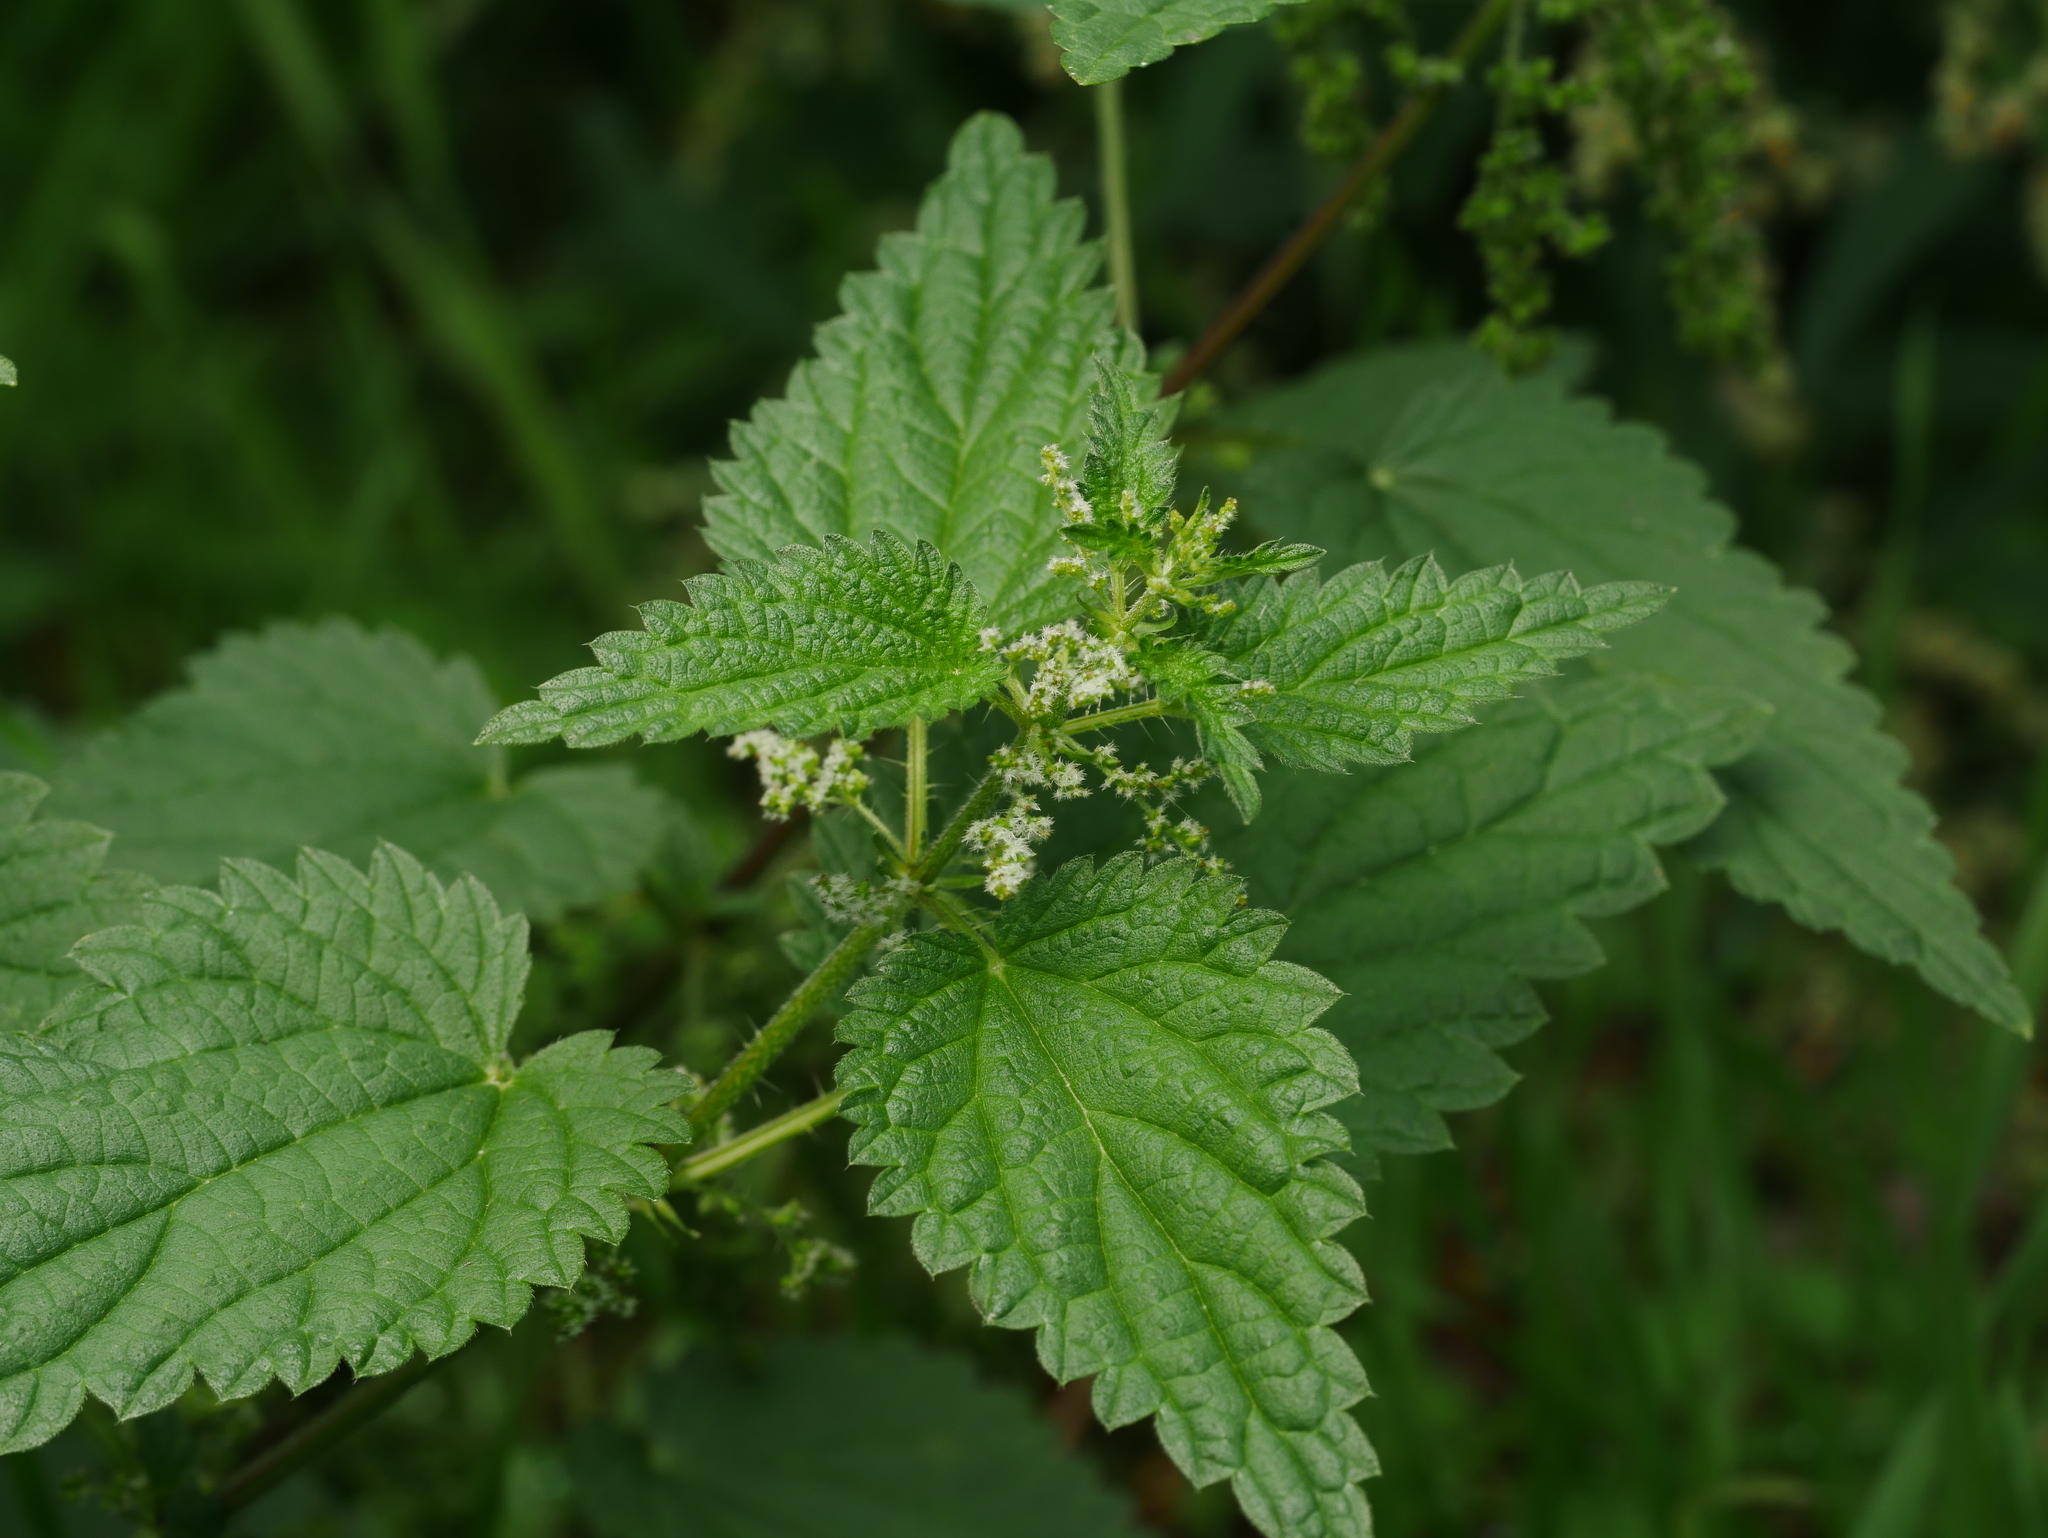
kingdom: Plantae
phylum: Tracheophyta
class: Magnoliopsida
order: Rosales
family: Urticaceae
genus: Urtica
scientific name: Urtica dioica
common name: Common nettle
